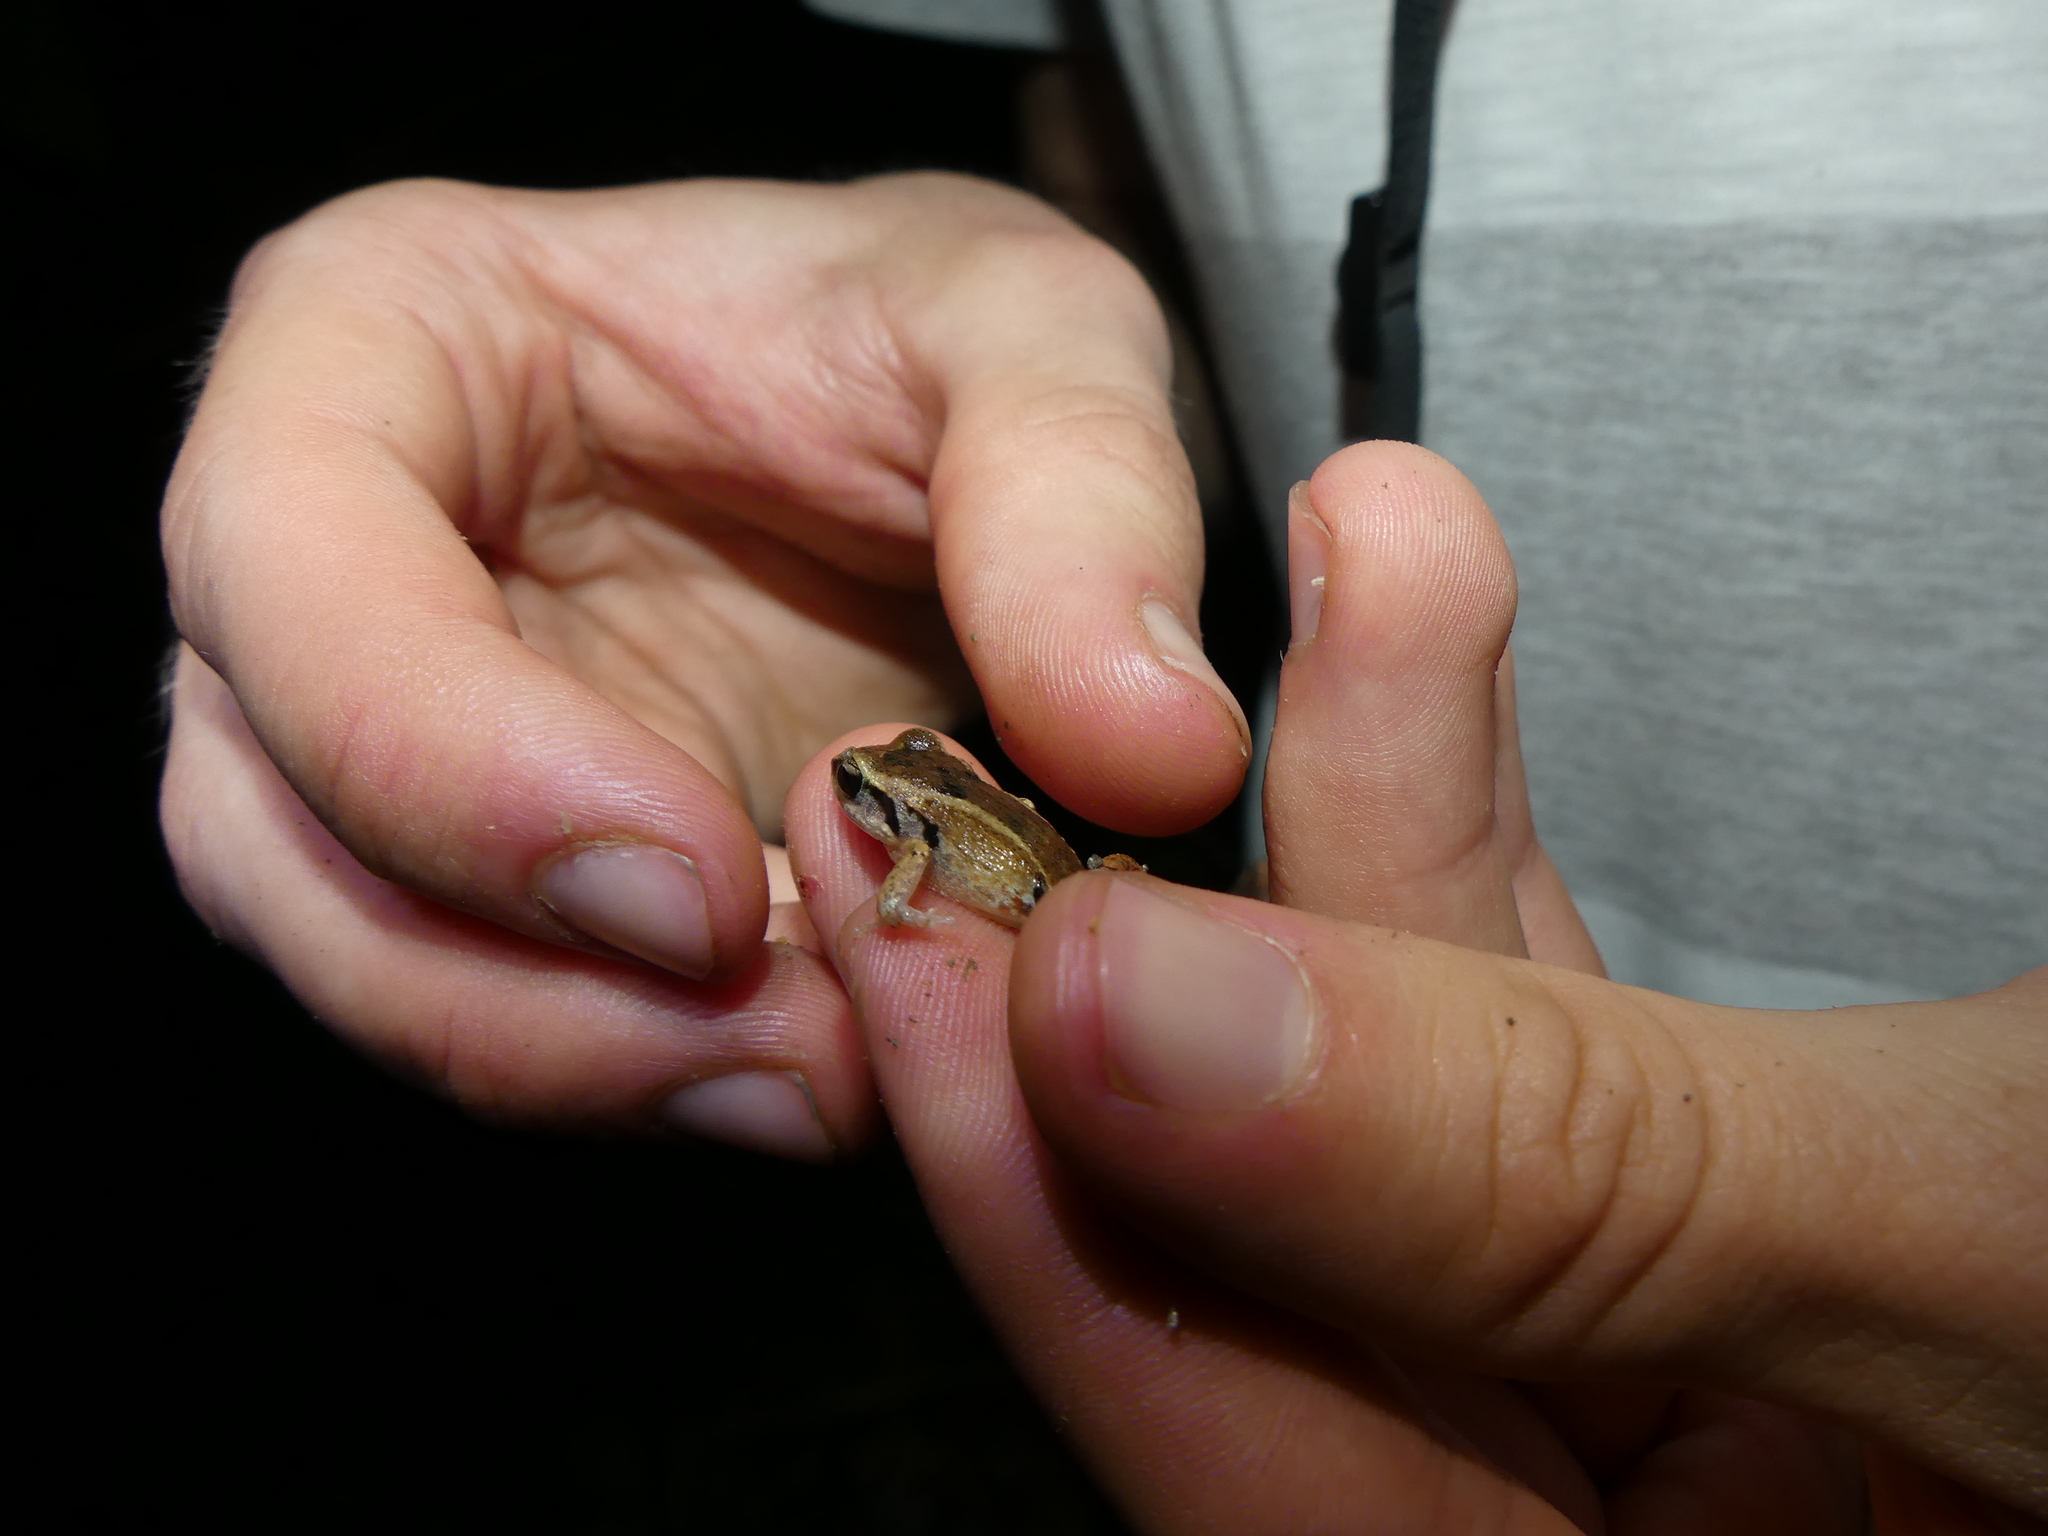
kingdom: Animalia
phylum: Chordata
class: Amphibia
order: Anura
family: Eleutherodactylidae
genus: Eleutherodactylus
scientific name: Eleutherodactylus atkinsi
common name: Cuban groin-spotted frog
